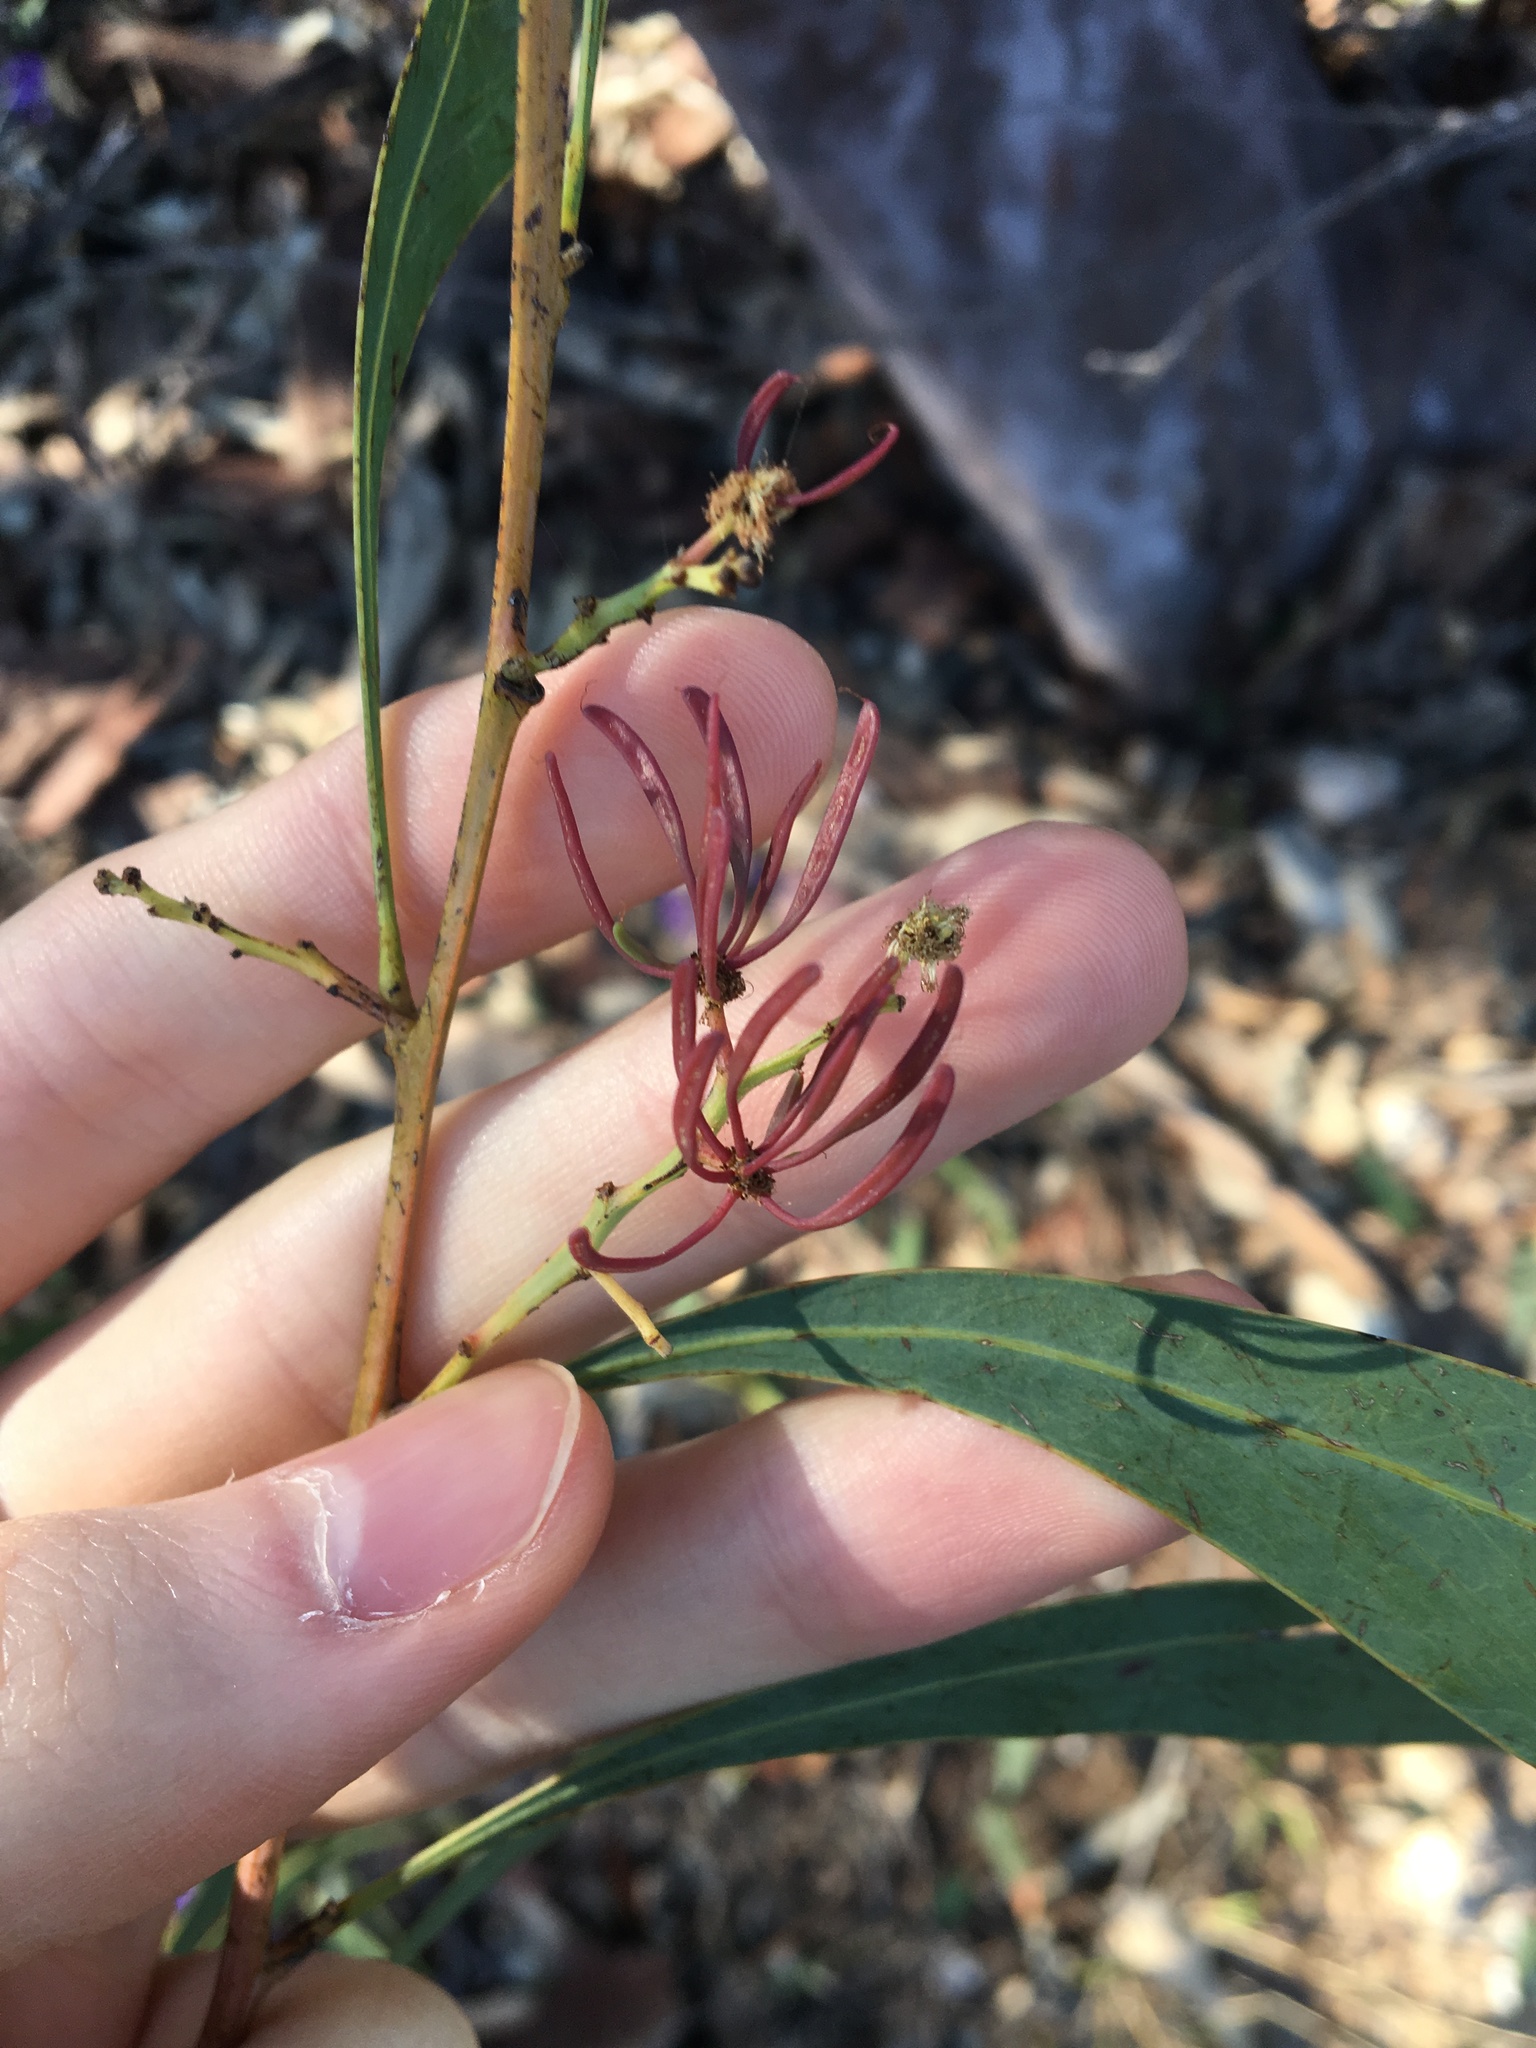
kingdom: Plantae
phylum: Tracheophyta
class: Magnoliopsida
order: Fabales
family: Fabaceae
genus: Acacia
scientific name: Acacia falcata
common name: Burra acacia
